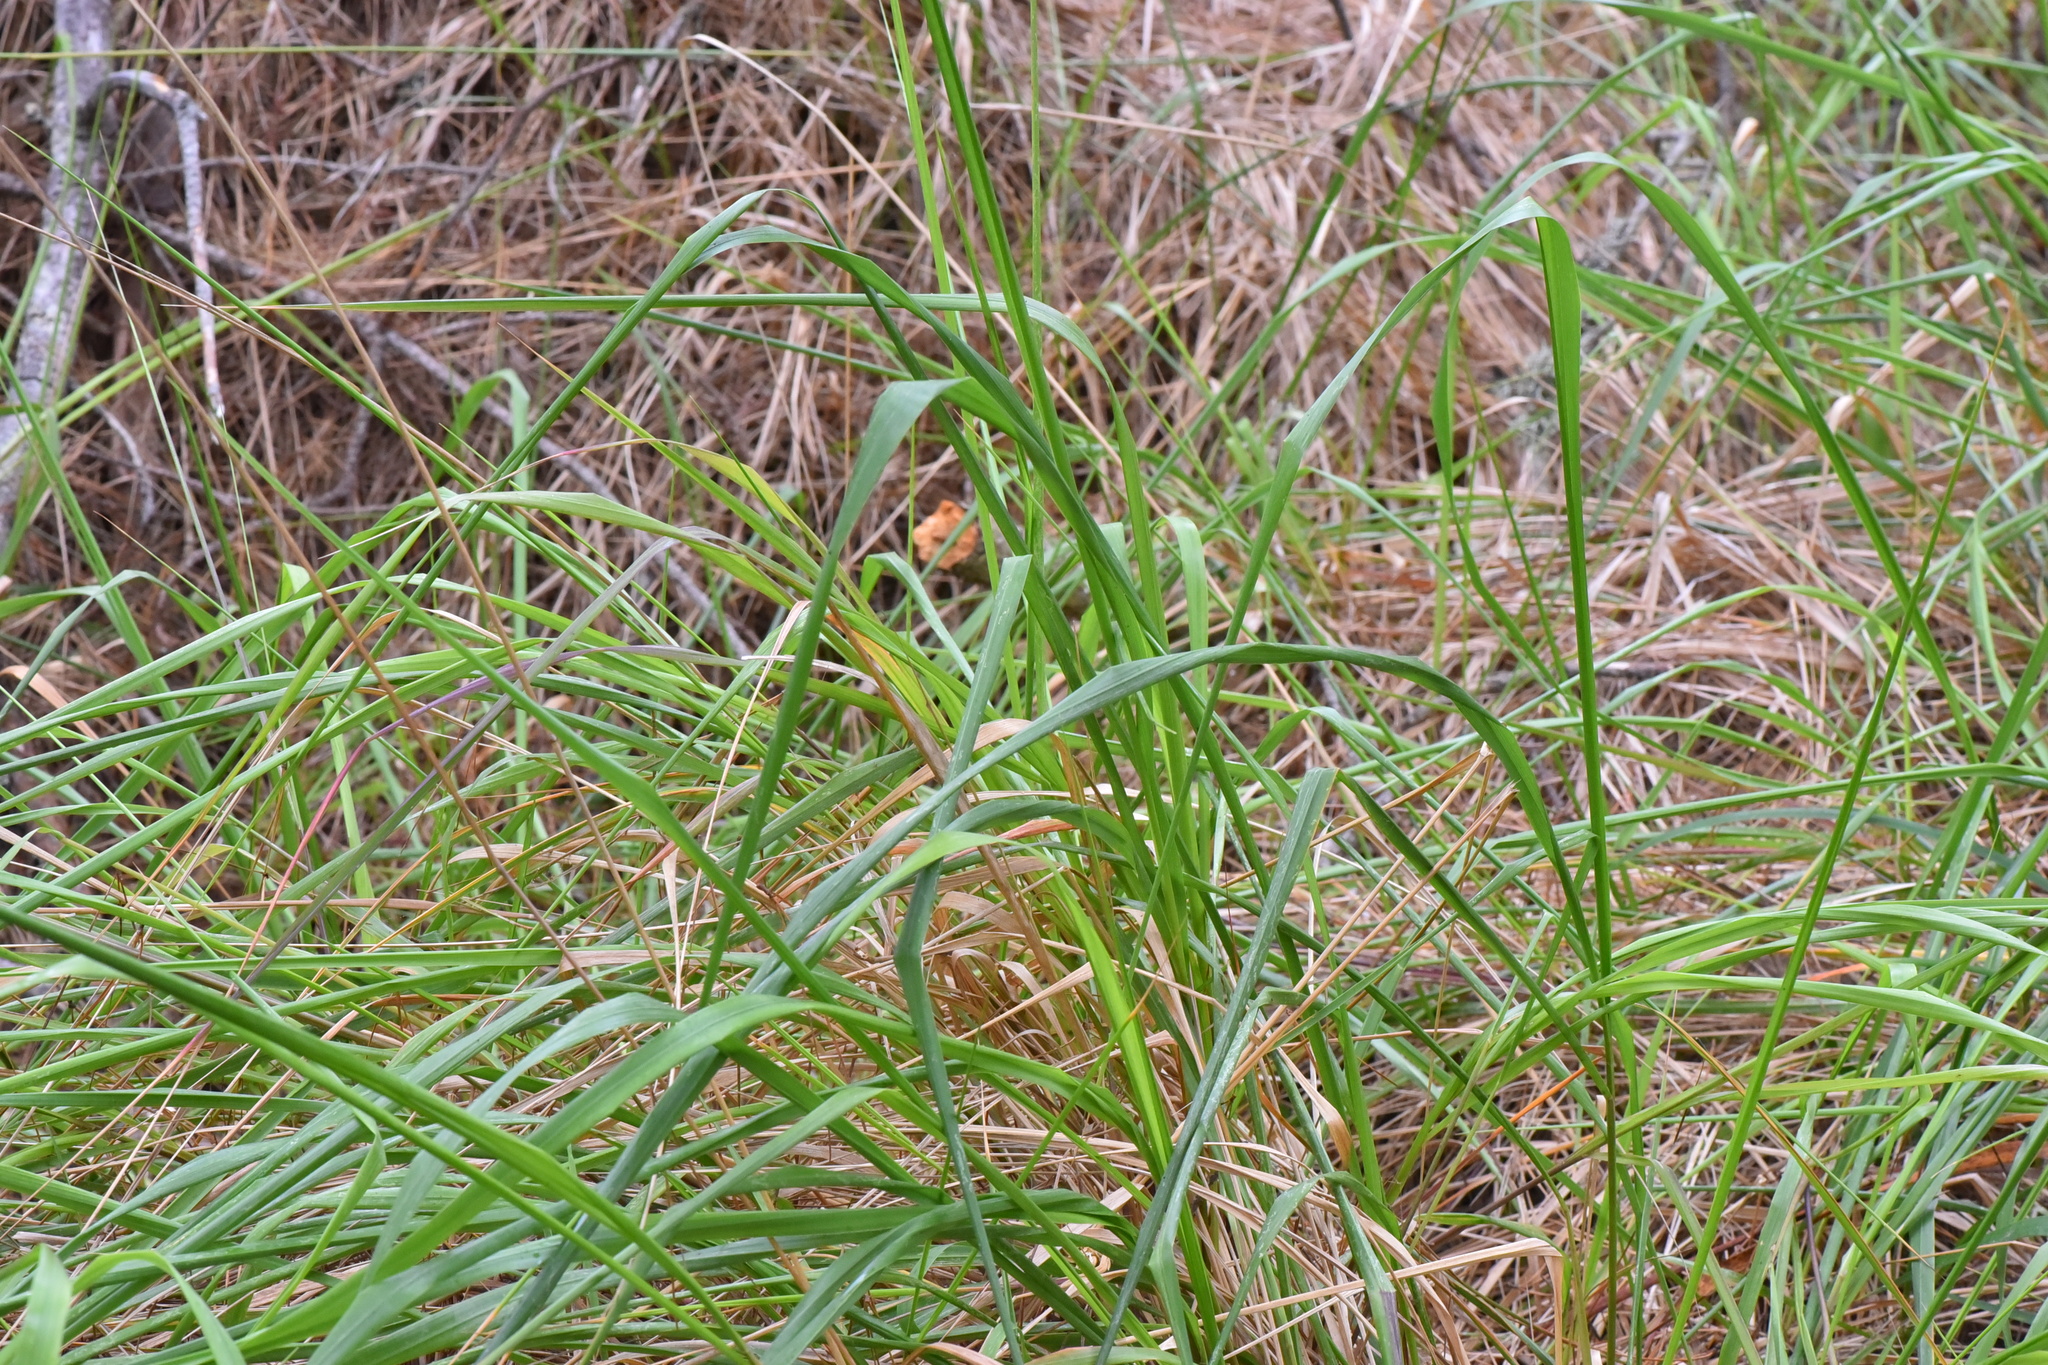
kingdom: Plantae
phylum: Tracheophyta
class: Liliopsida
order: Poales
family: Poaceae
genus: Calamagrostis
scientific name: Calamagrostis nutkaensis
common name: Pacific reed grass
